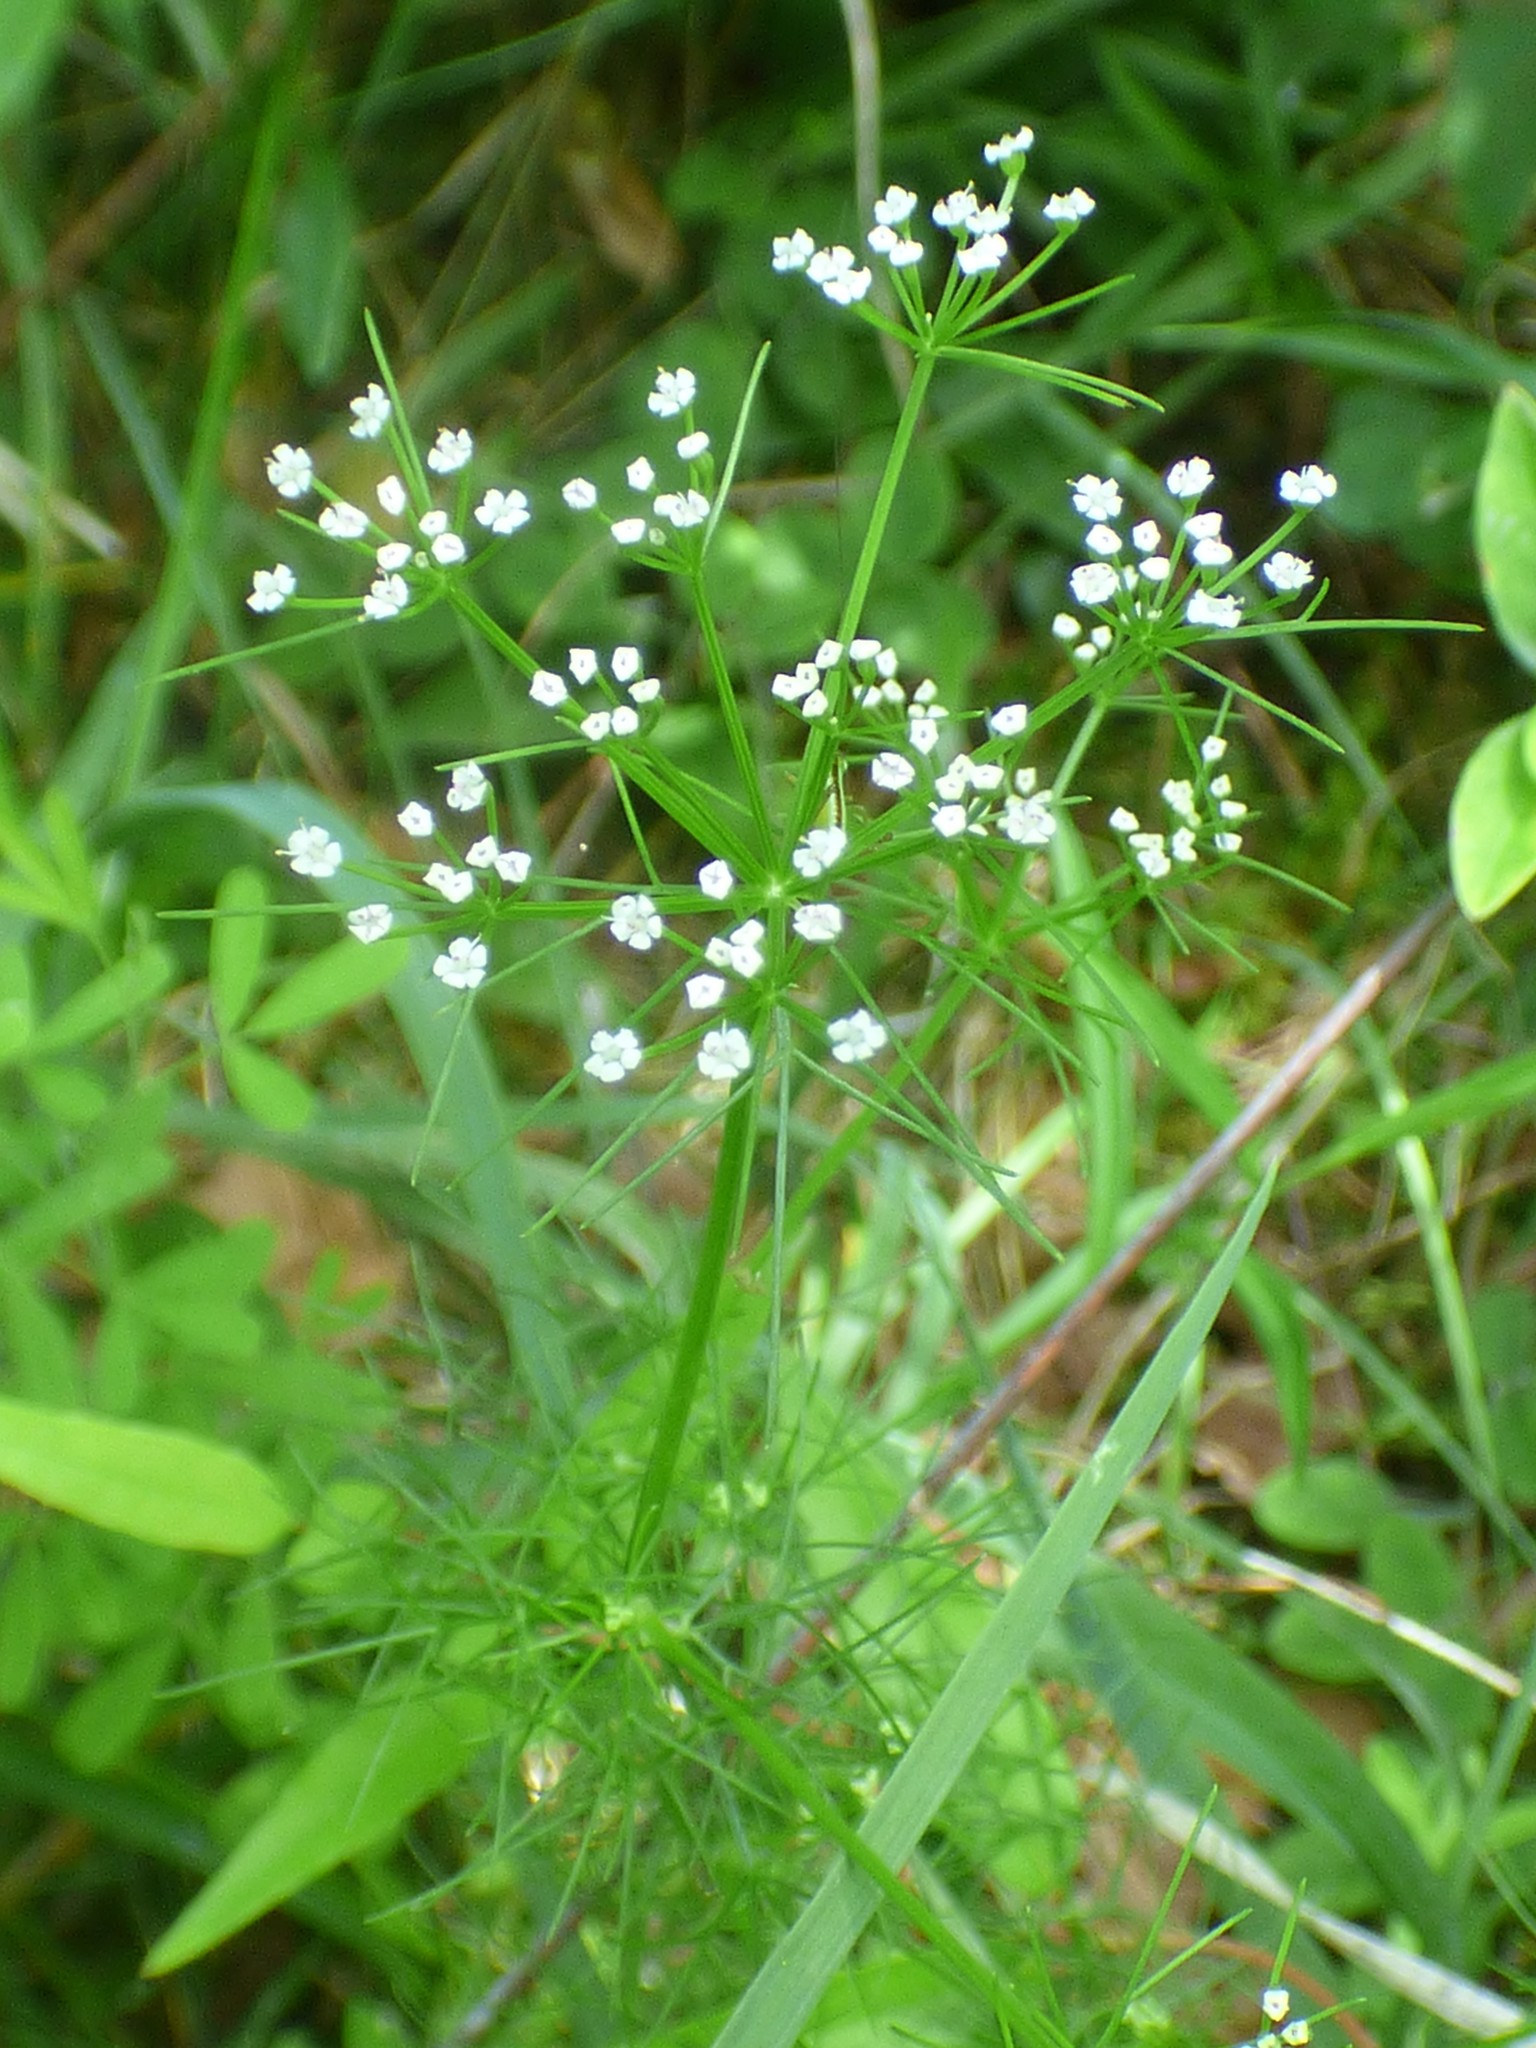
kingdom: Plantae
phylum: Tracheophyta
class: Magnoliopsida
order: Apiales
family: Apiaceae
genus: Ptilimnium
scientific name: Ptilimnium capillaceum
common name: Herbwilliam
